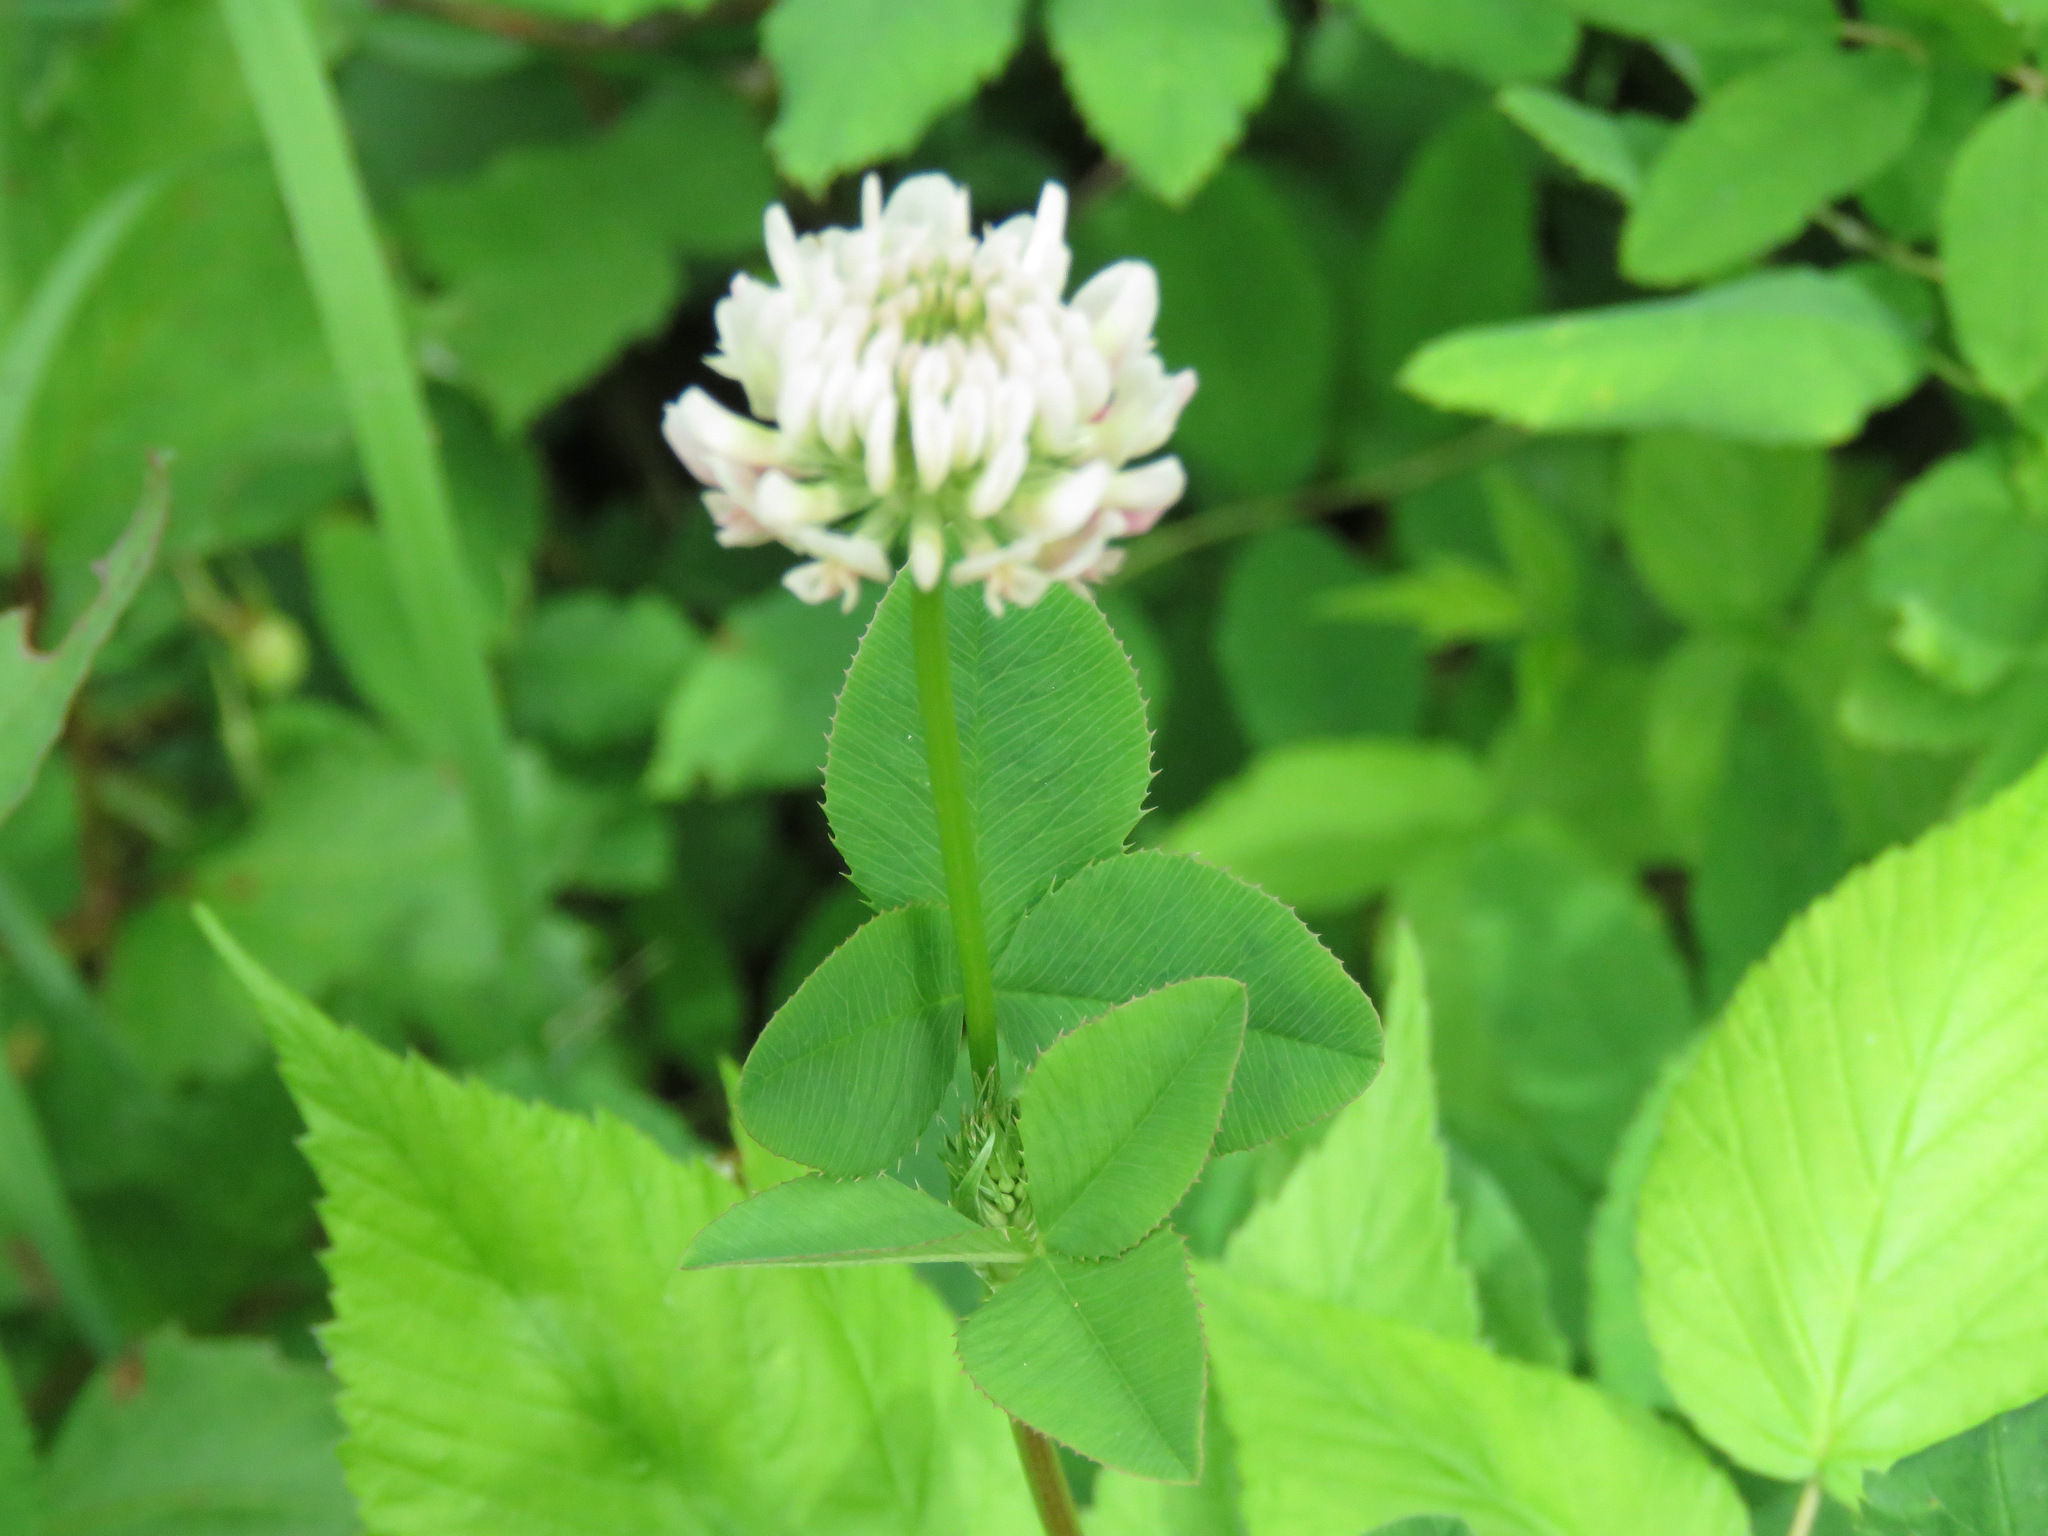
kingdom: Plantae
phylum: Tracheophyta
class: Magnoliopsida
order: Fabales
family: Fabaceae
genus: Trifolium
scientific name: Trifolium hybridum
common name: Alsike clover
